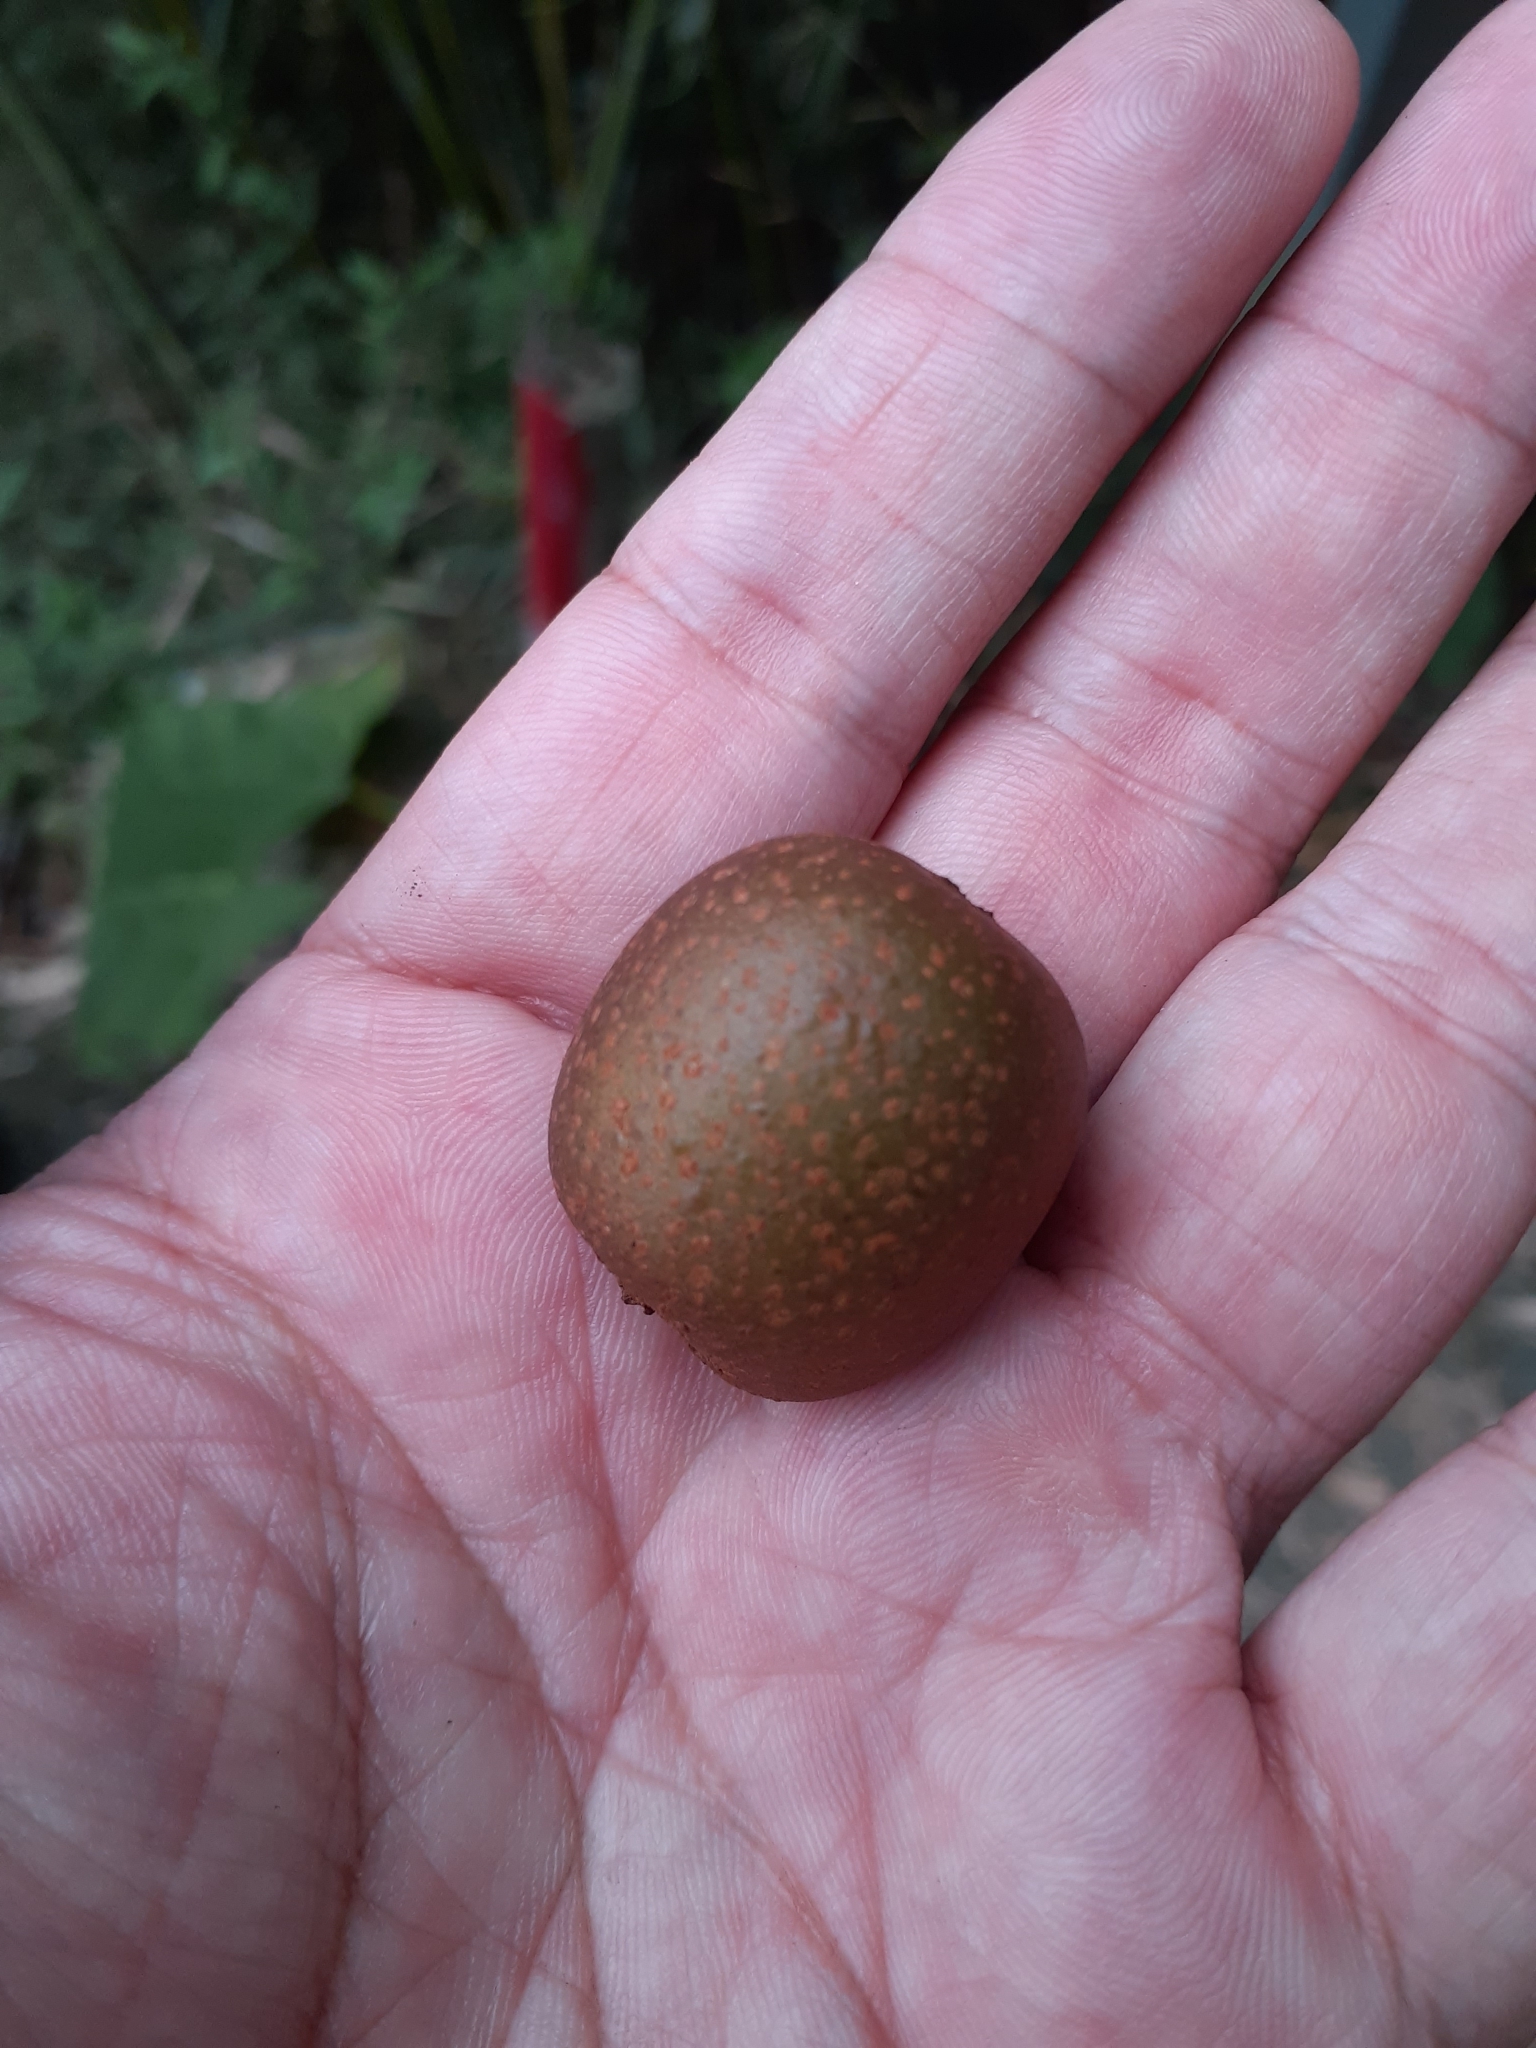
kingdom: Plantae
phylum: Tracheophyta
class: Magnoliopsida
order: Ericales
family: Actinidiaceae
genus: Actinidia
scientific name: Actinidia rufa
